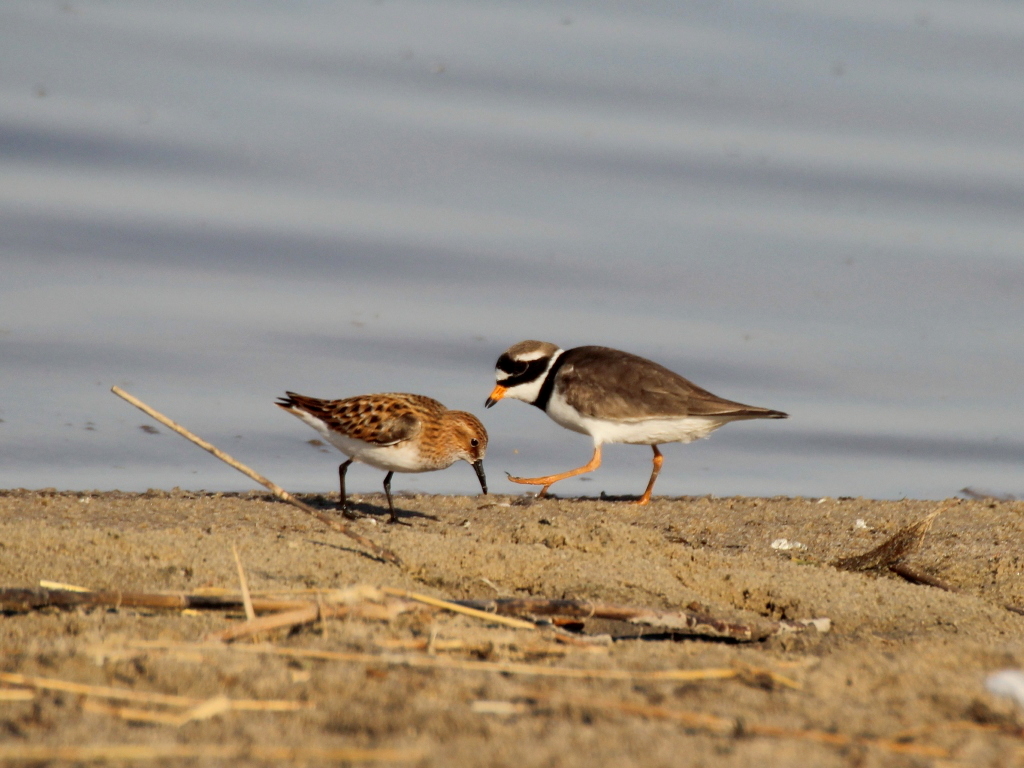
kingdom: Animalia
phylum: Chordata
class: Aves
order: Charadriiformes
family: Charadriidae
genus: Charadrius
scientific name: Charadrius hiaticula
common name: Common ringed plover
